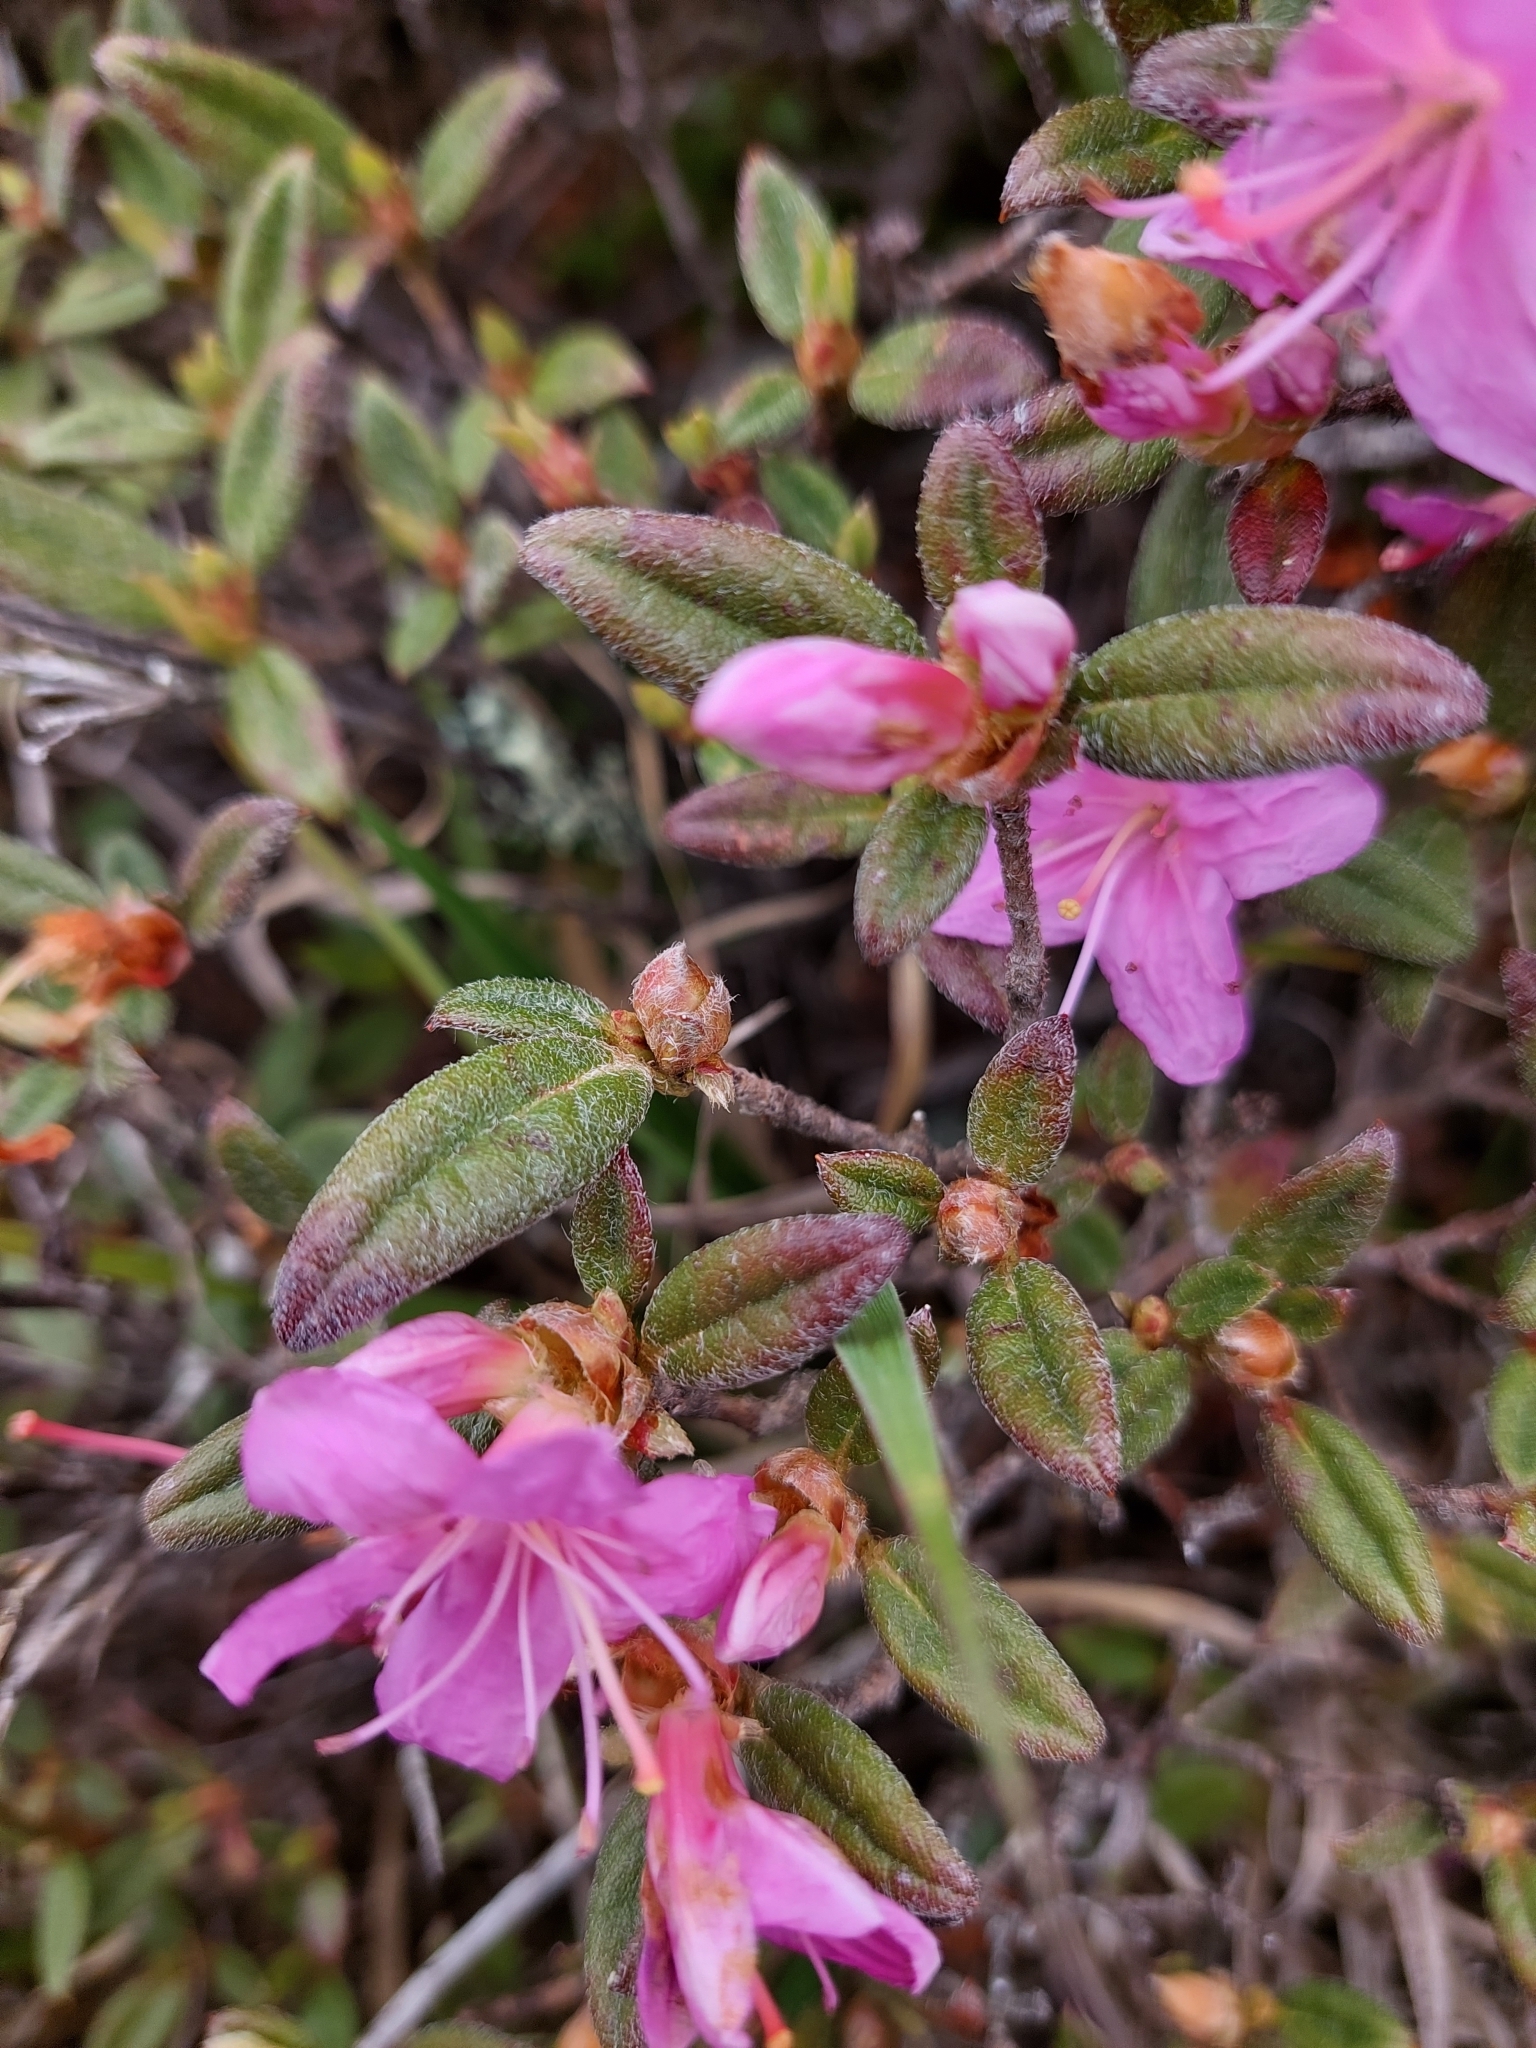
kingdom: Plantae
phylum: Tracheophyta
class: Magnoliopsida
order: Ericales
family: Ericaceae
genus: Rhododendron
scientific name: Rhododendron taiwanalpinum
